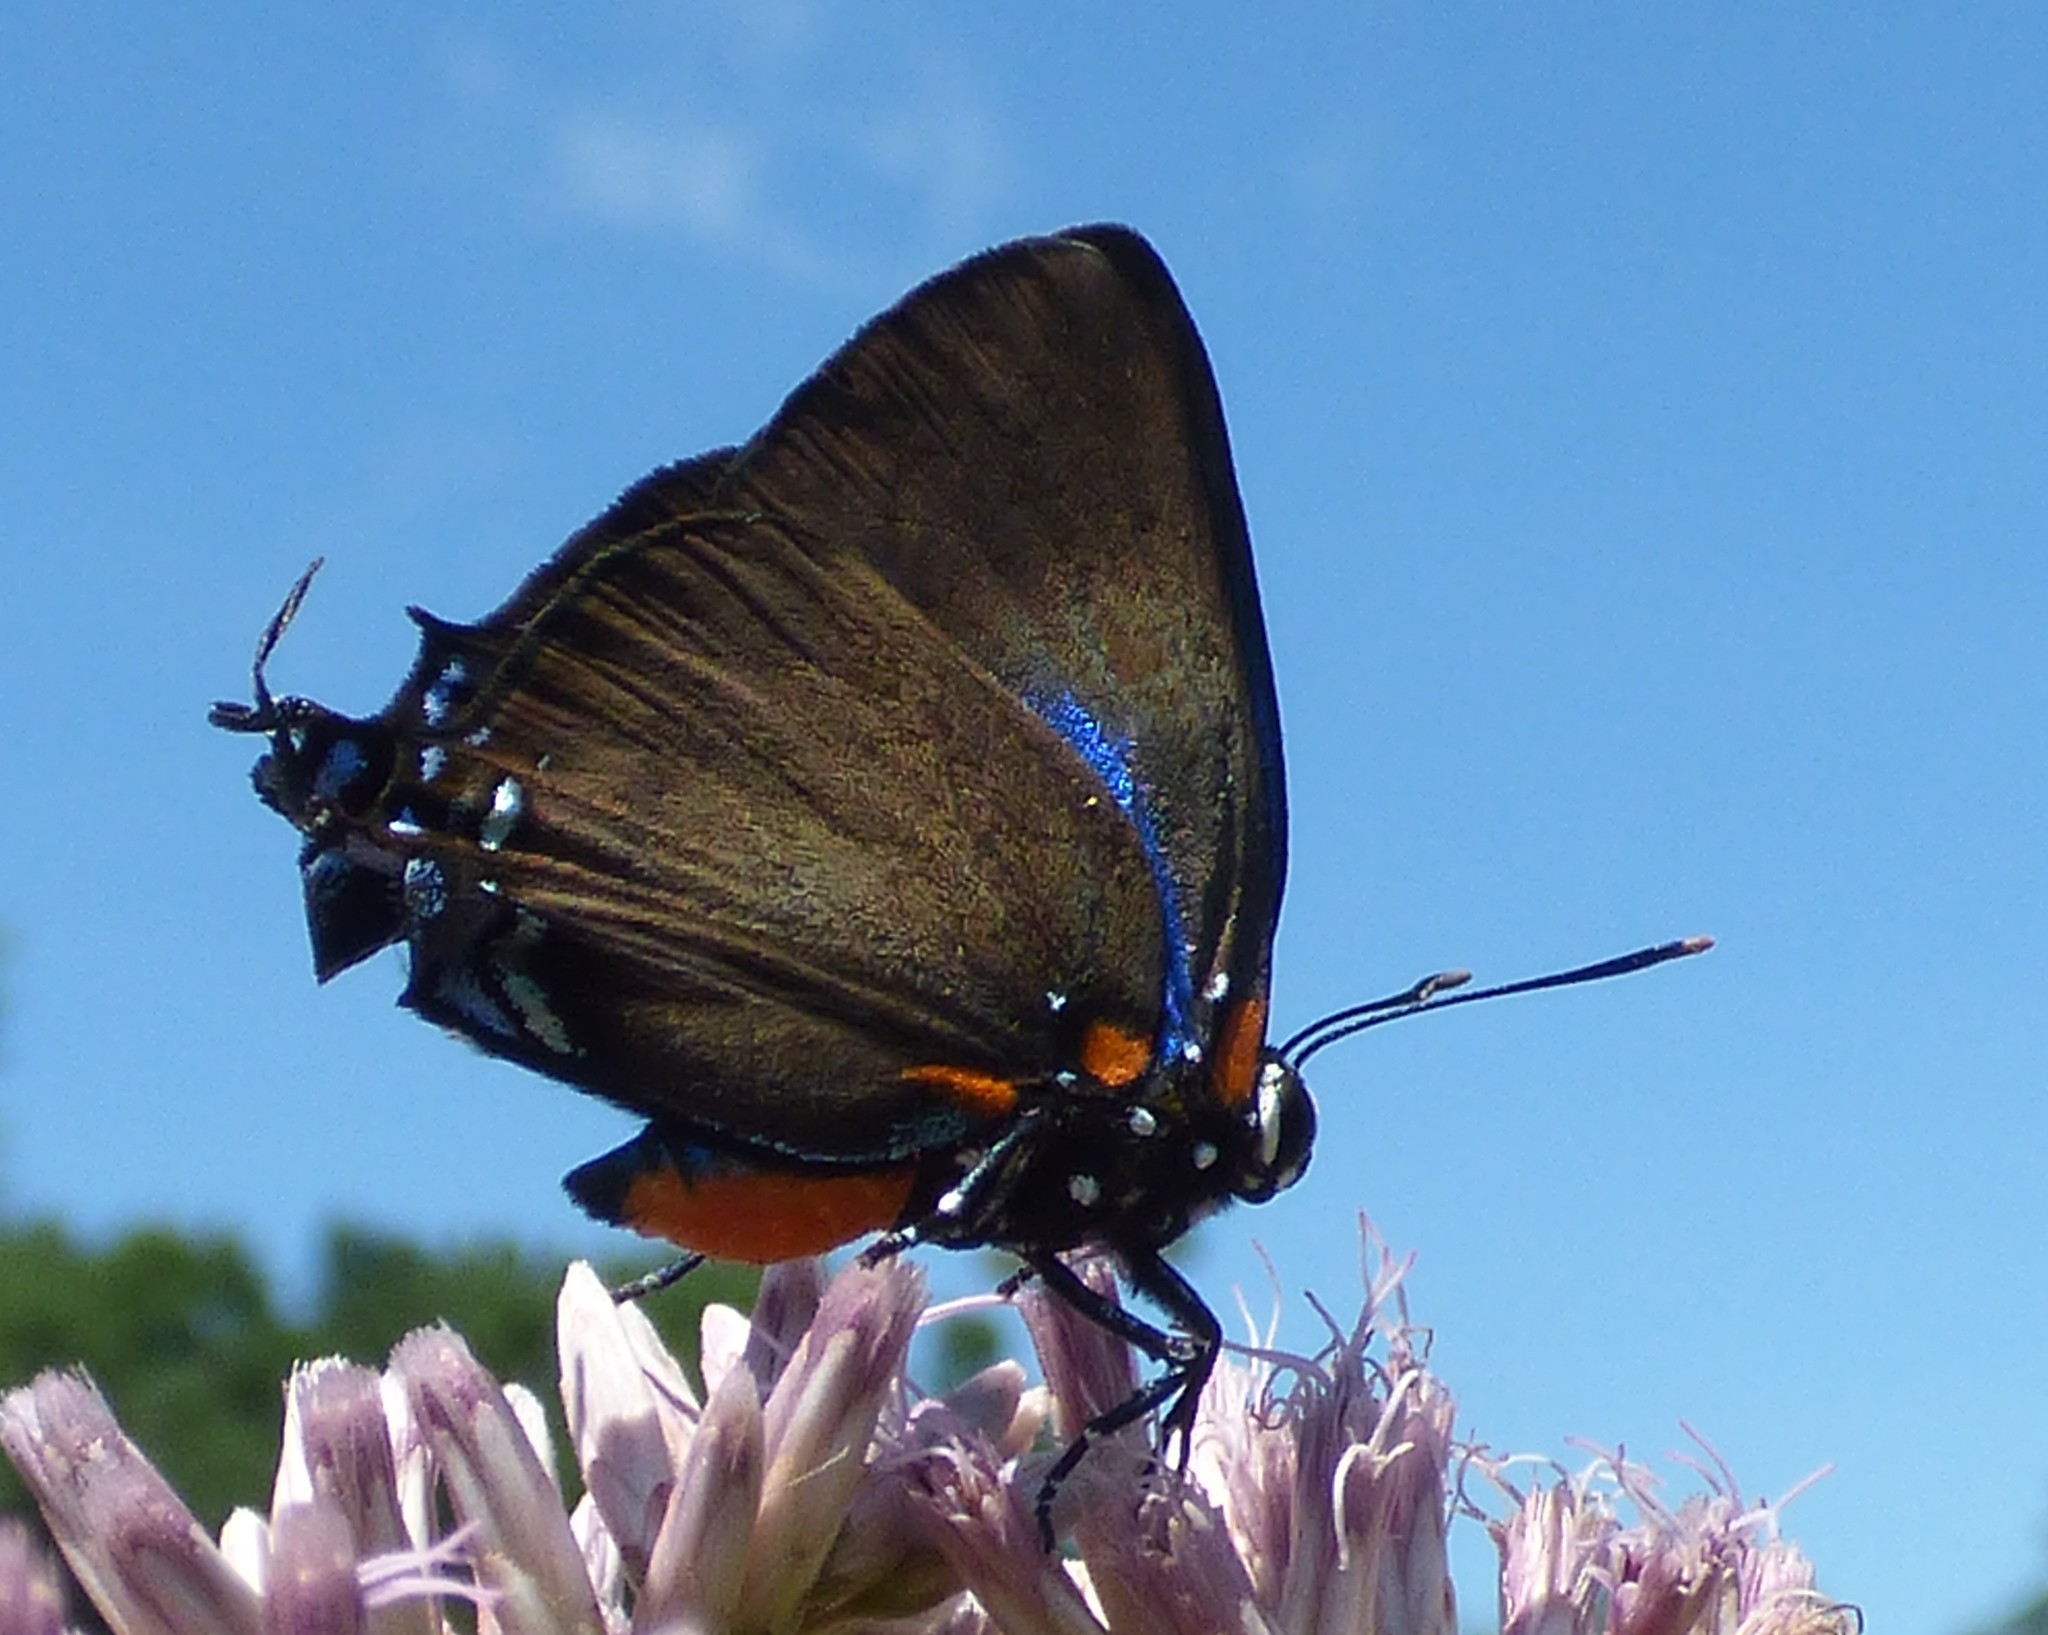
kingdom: Animalia
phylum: Arthropoda
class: Insecta
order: Lepidoptera
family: Lycaenidae
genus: Atlides
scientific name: Atlides halesus
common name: Great purple hairstreak
